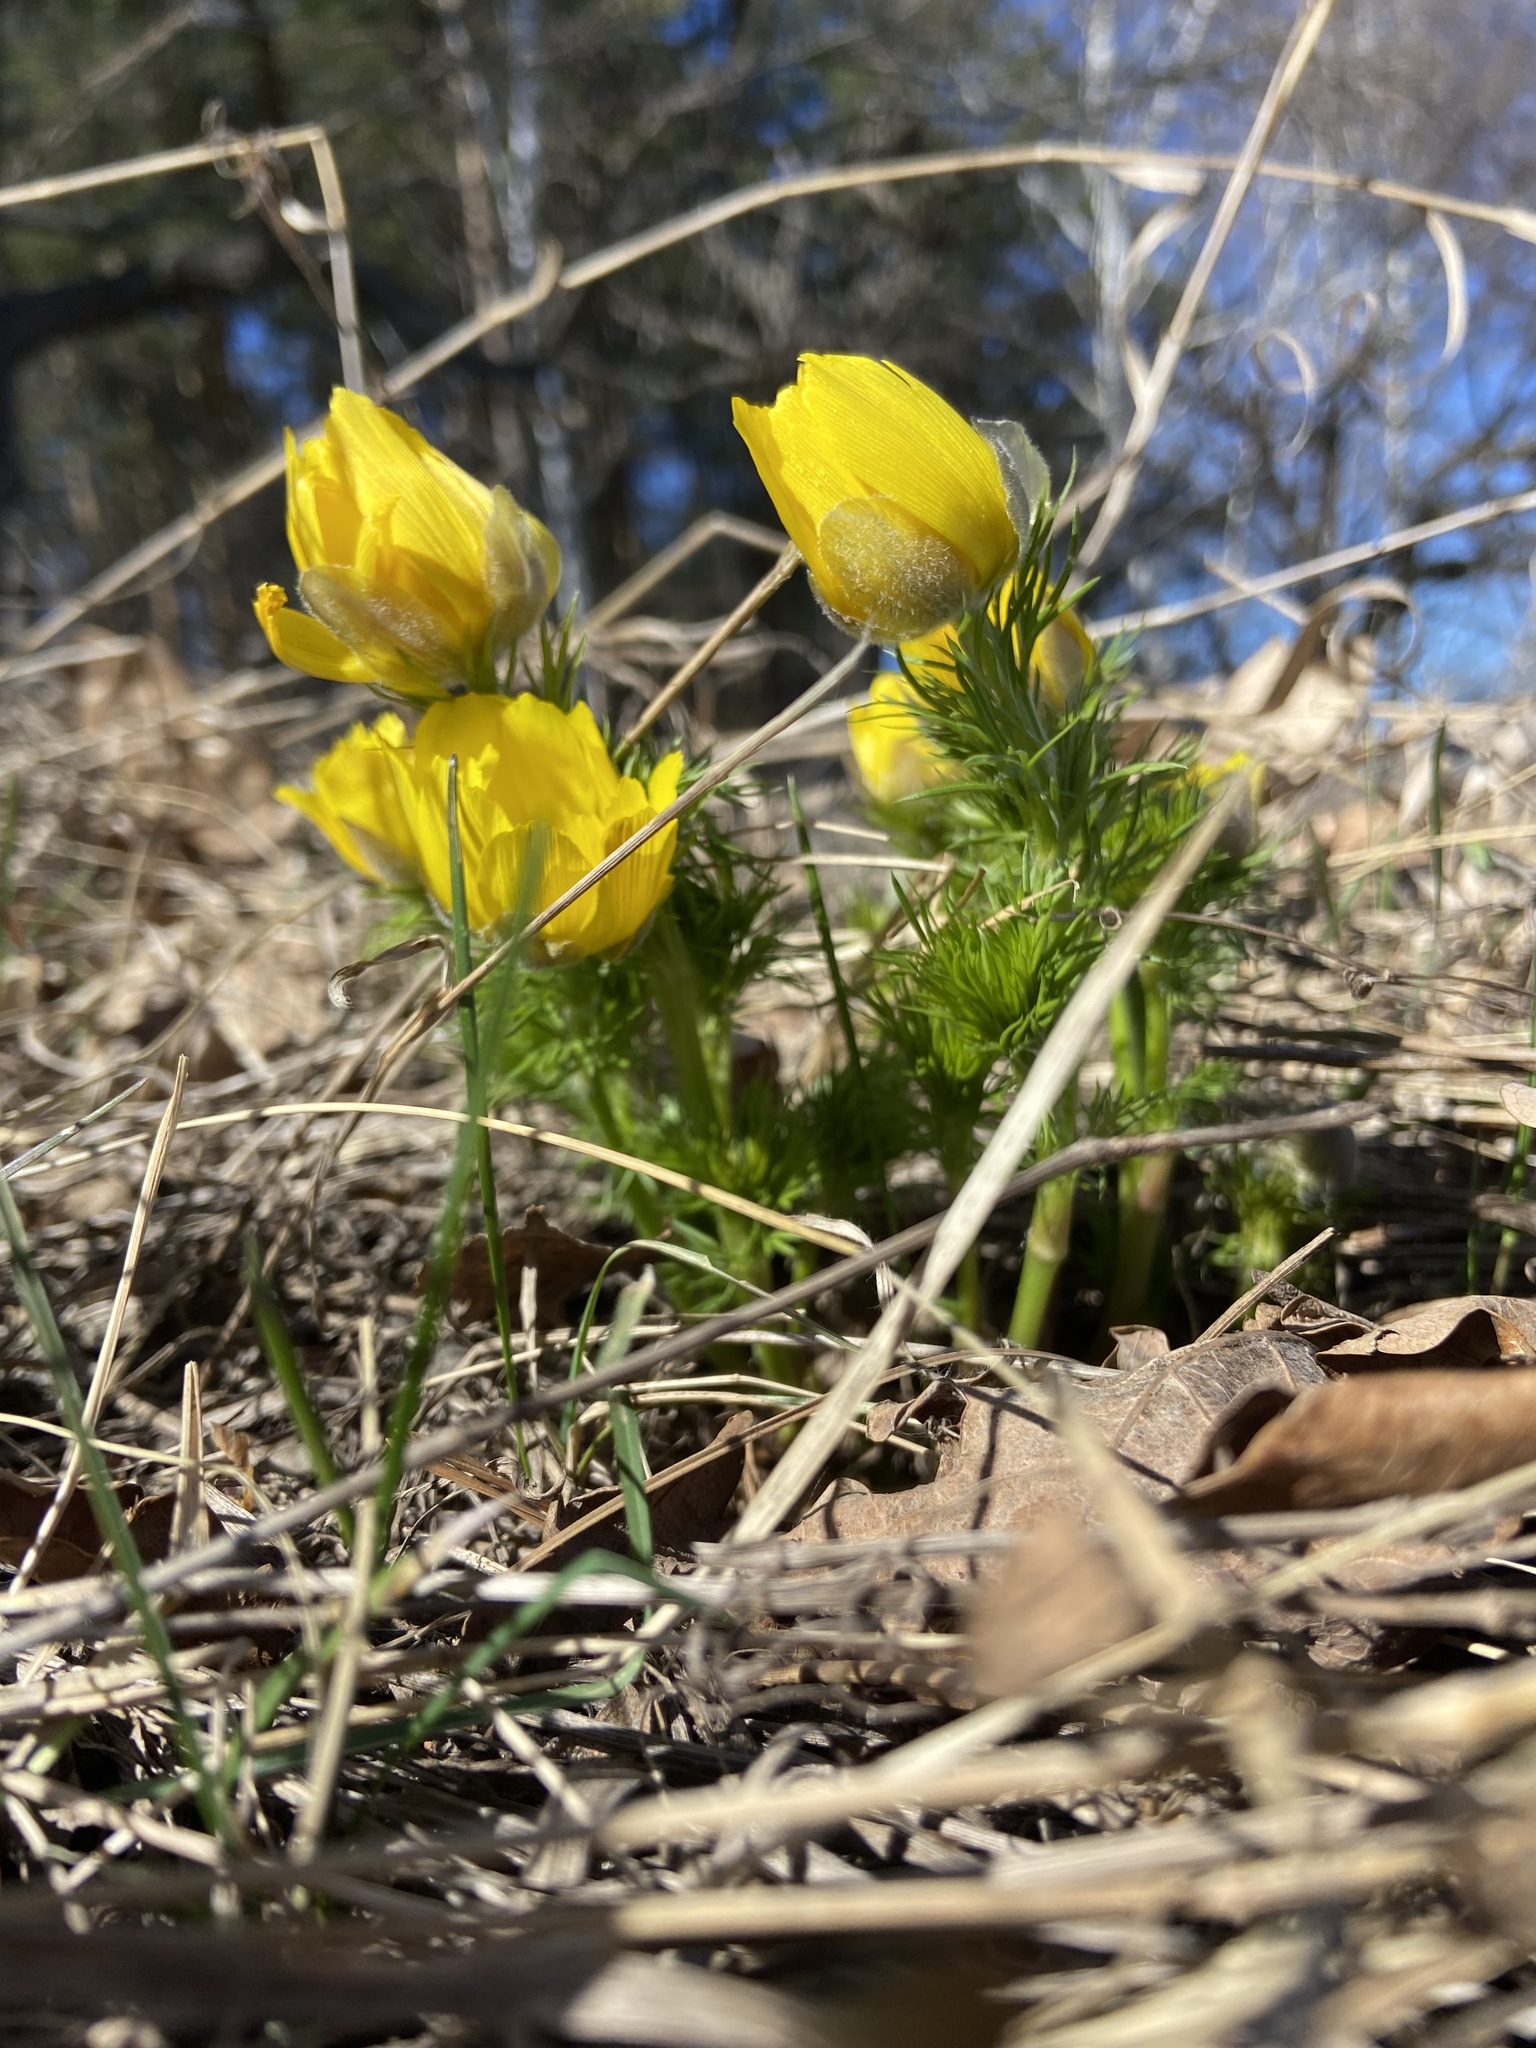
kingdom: Plantae
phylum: Tracheophyta
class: Magnoliopsida
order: Ranunculales
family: Ranunculaceae
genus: Adonis
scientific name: Adonis vernalis
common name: Yellow pheasants-eye
